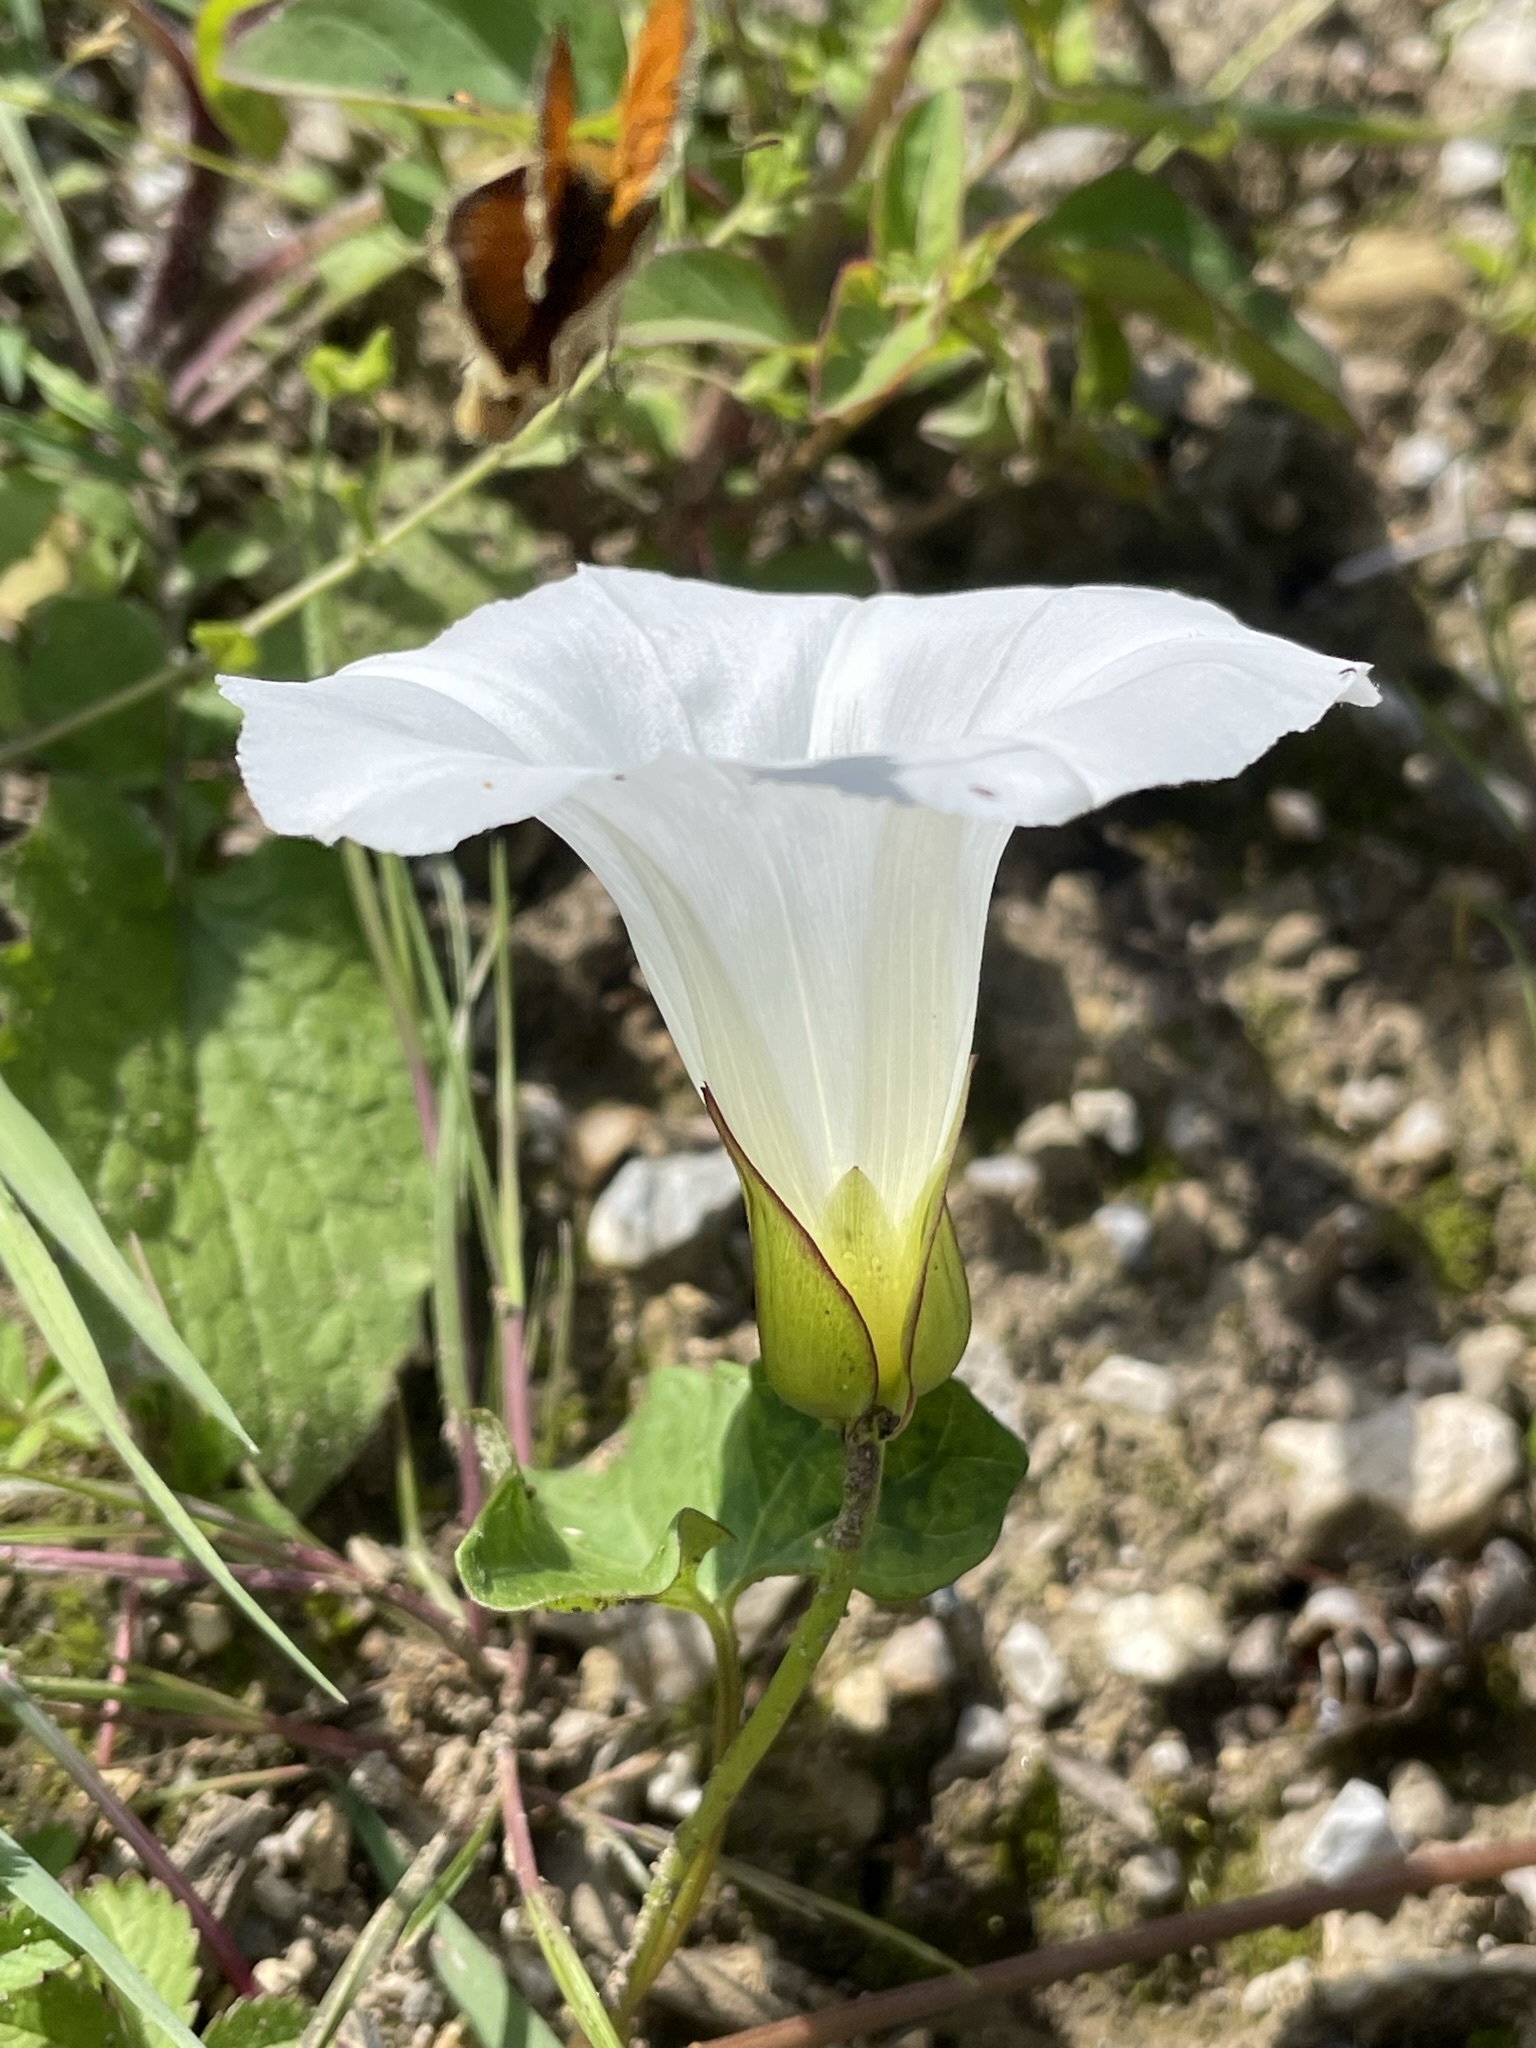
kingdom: Plantae
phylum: Tracheophyta
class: Magnoliopsida
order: Solanales
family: Convolvulaceae
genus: Calystegia
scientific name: Calystegia sepium
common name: Hedge bindweed
